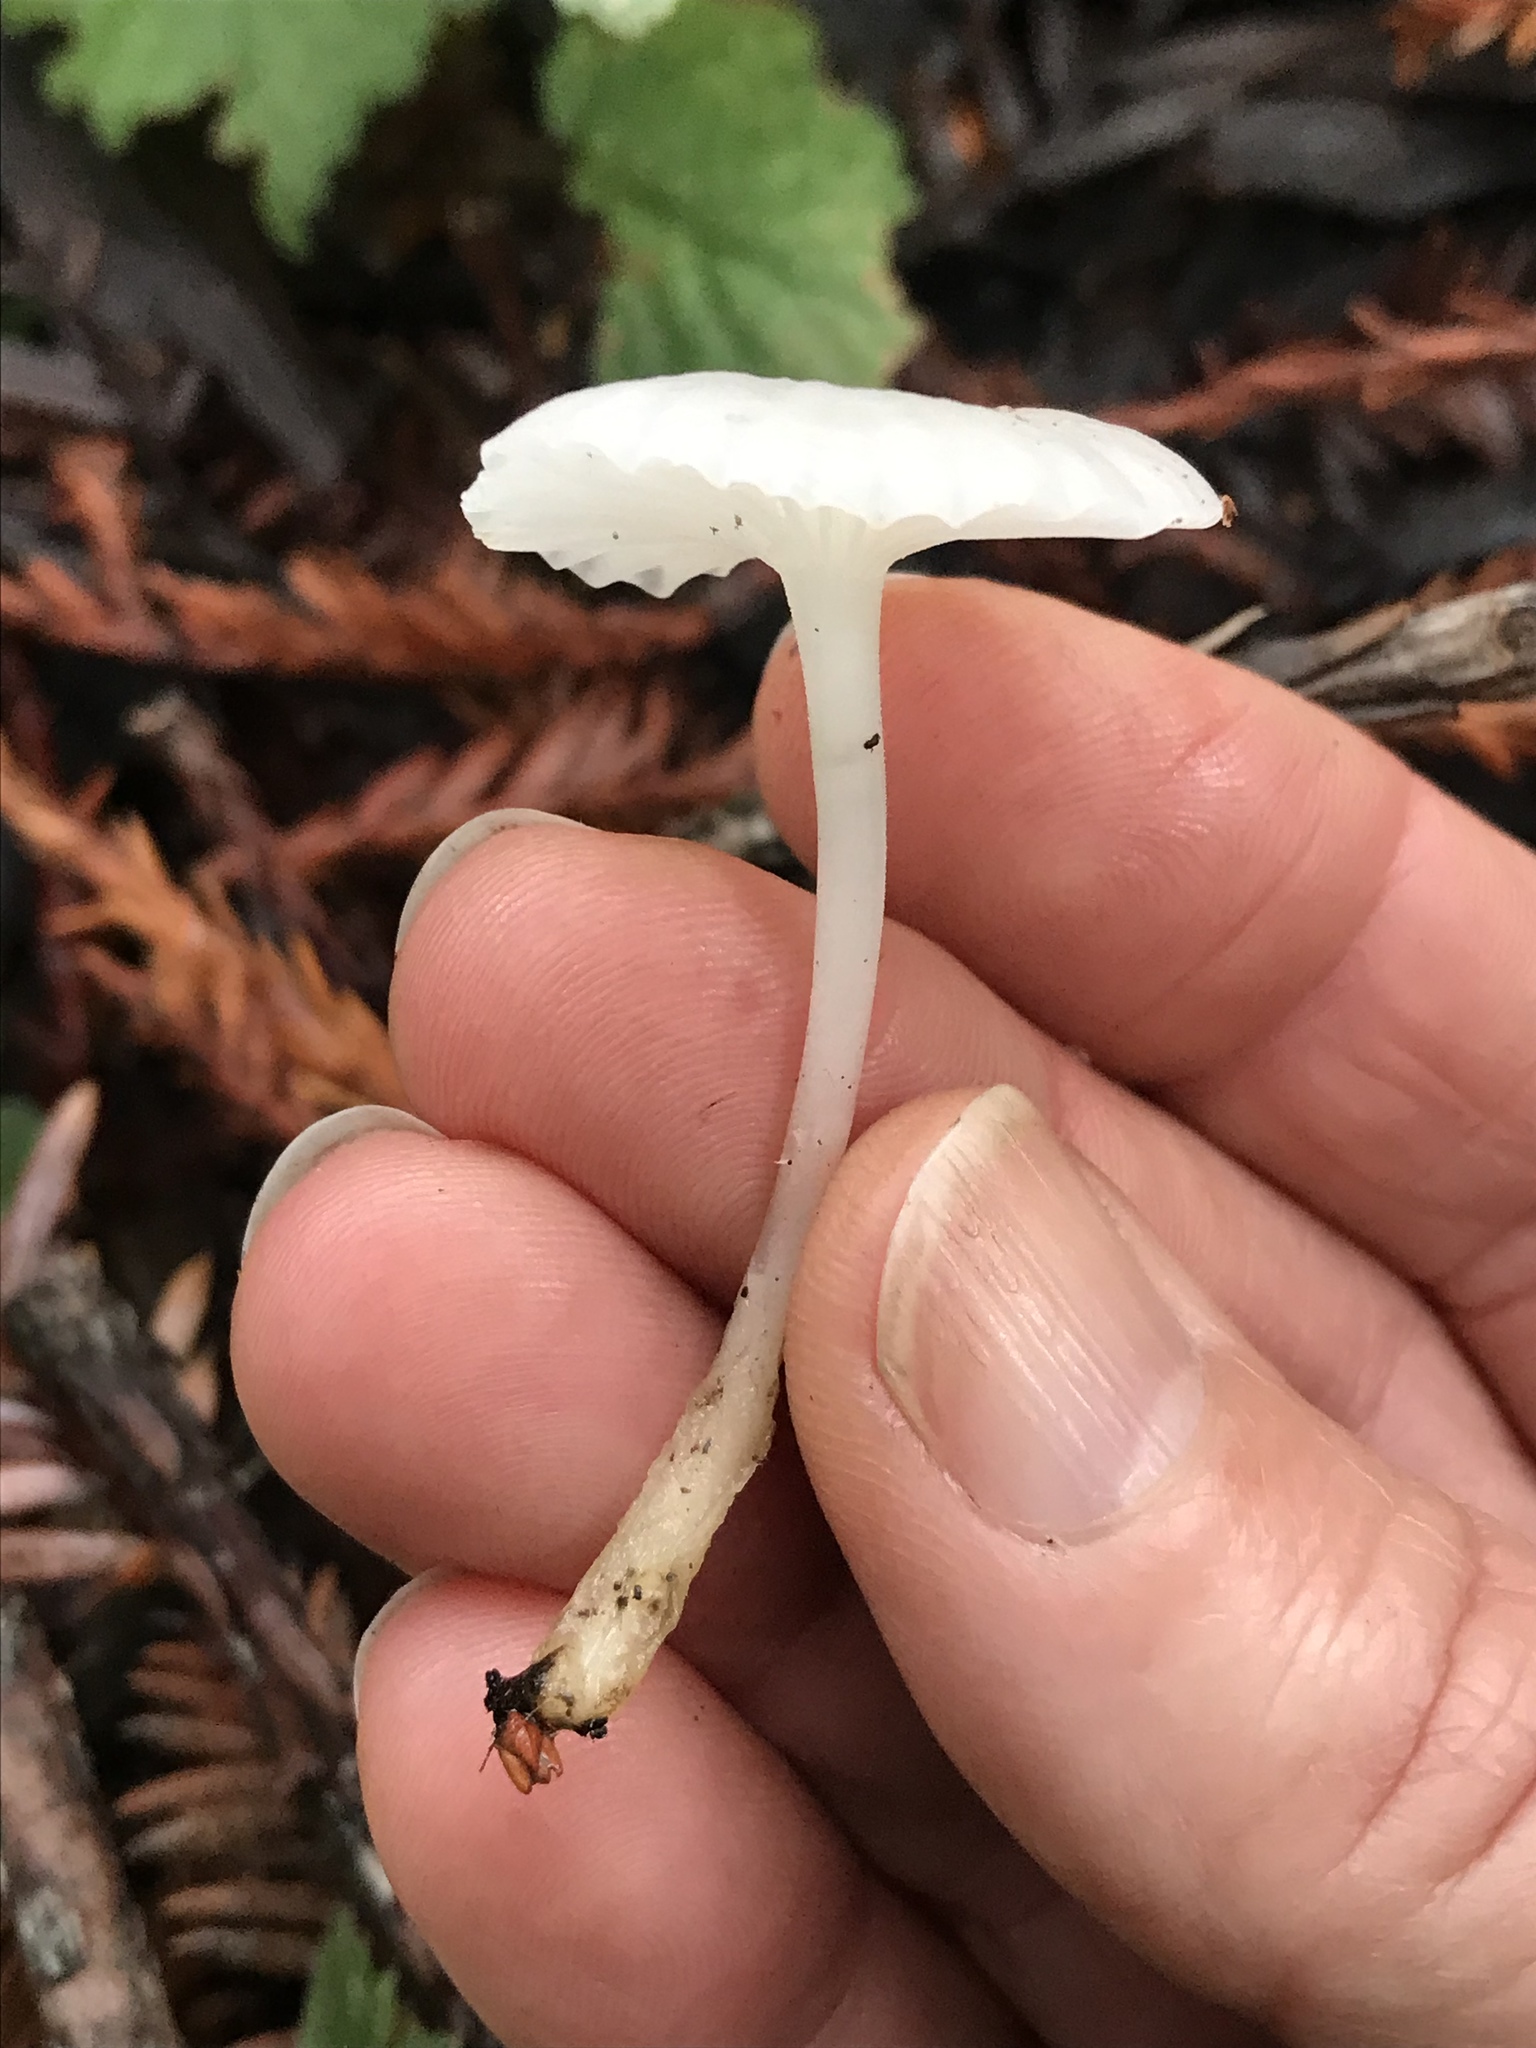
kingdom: Fungi
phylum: Basidiomycota
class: Agaricomycetes
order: Agaricales
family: Marasmiaceae
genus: Marasmius
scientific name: Marasmius calhouniae
